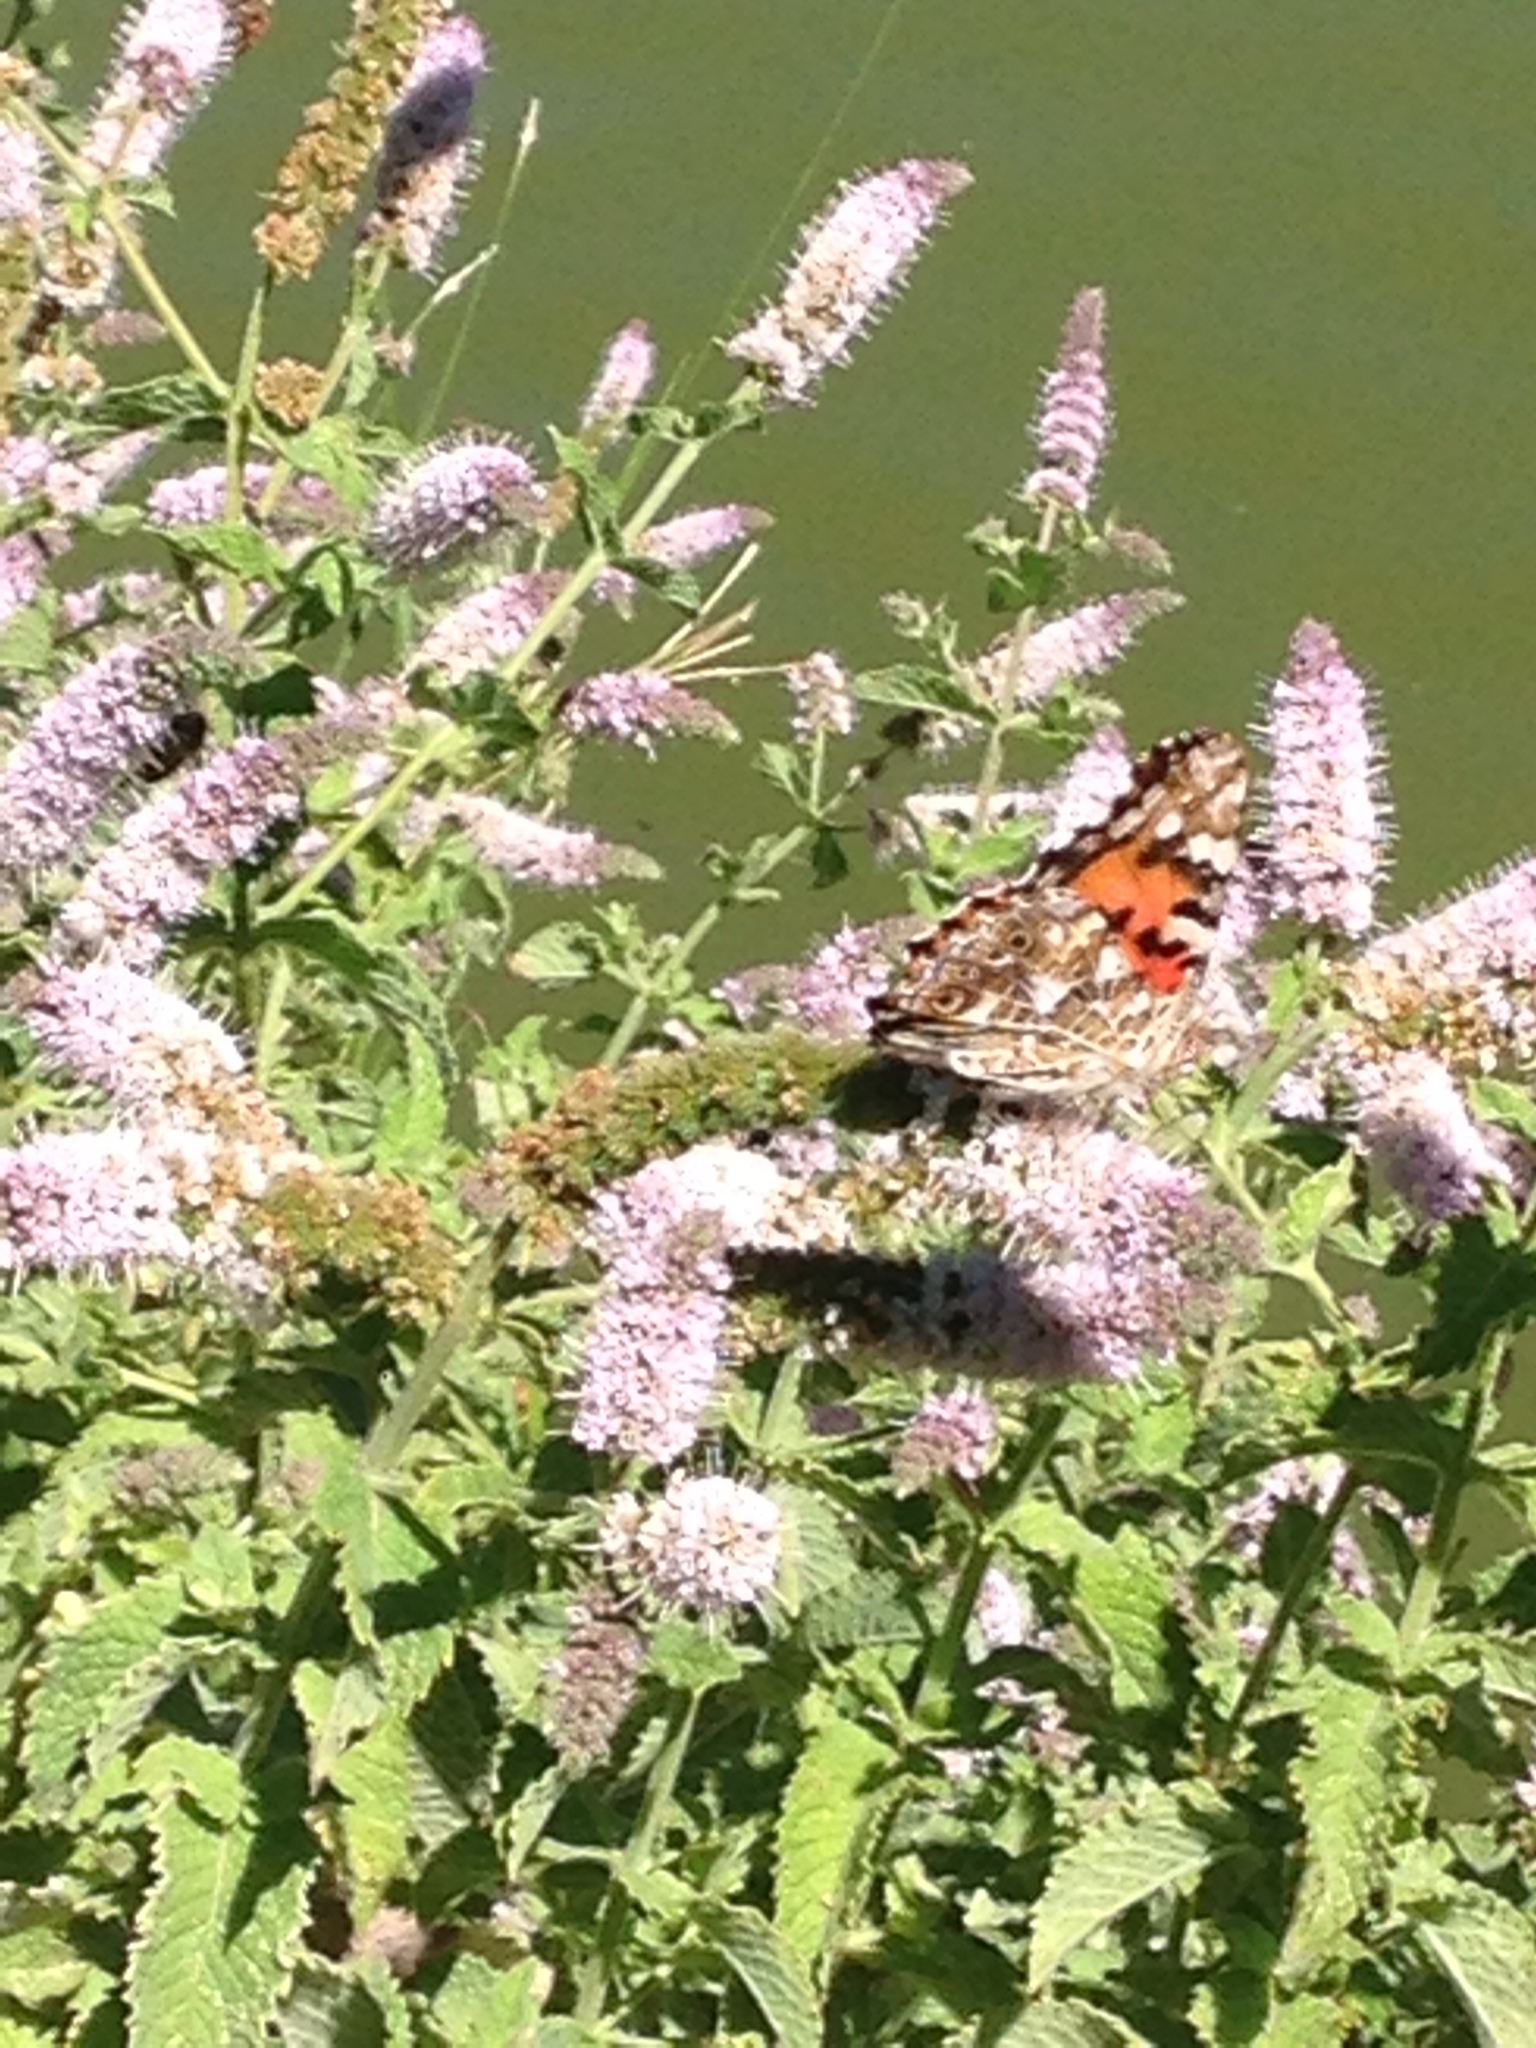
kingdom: Animalia
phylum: Arthropoda
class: Insecta
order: Lepidoptera
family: Nymphalidae
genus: Vanessa
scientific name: Vanessa cardui
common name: Painted lady
